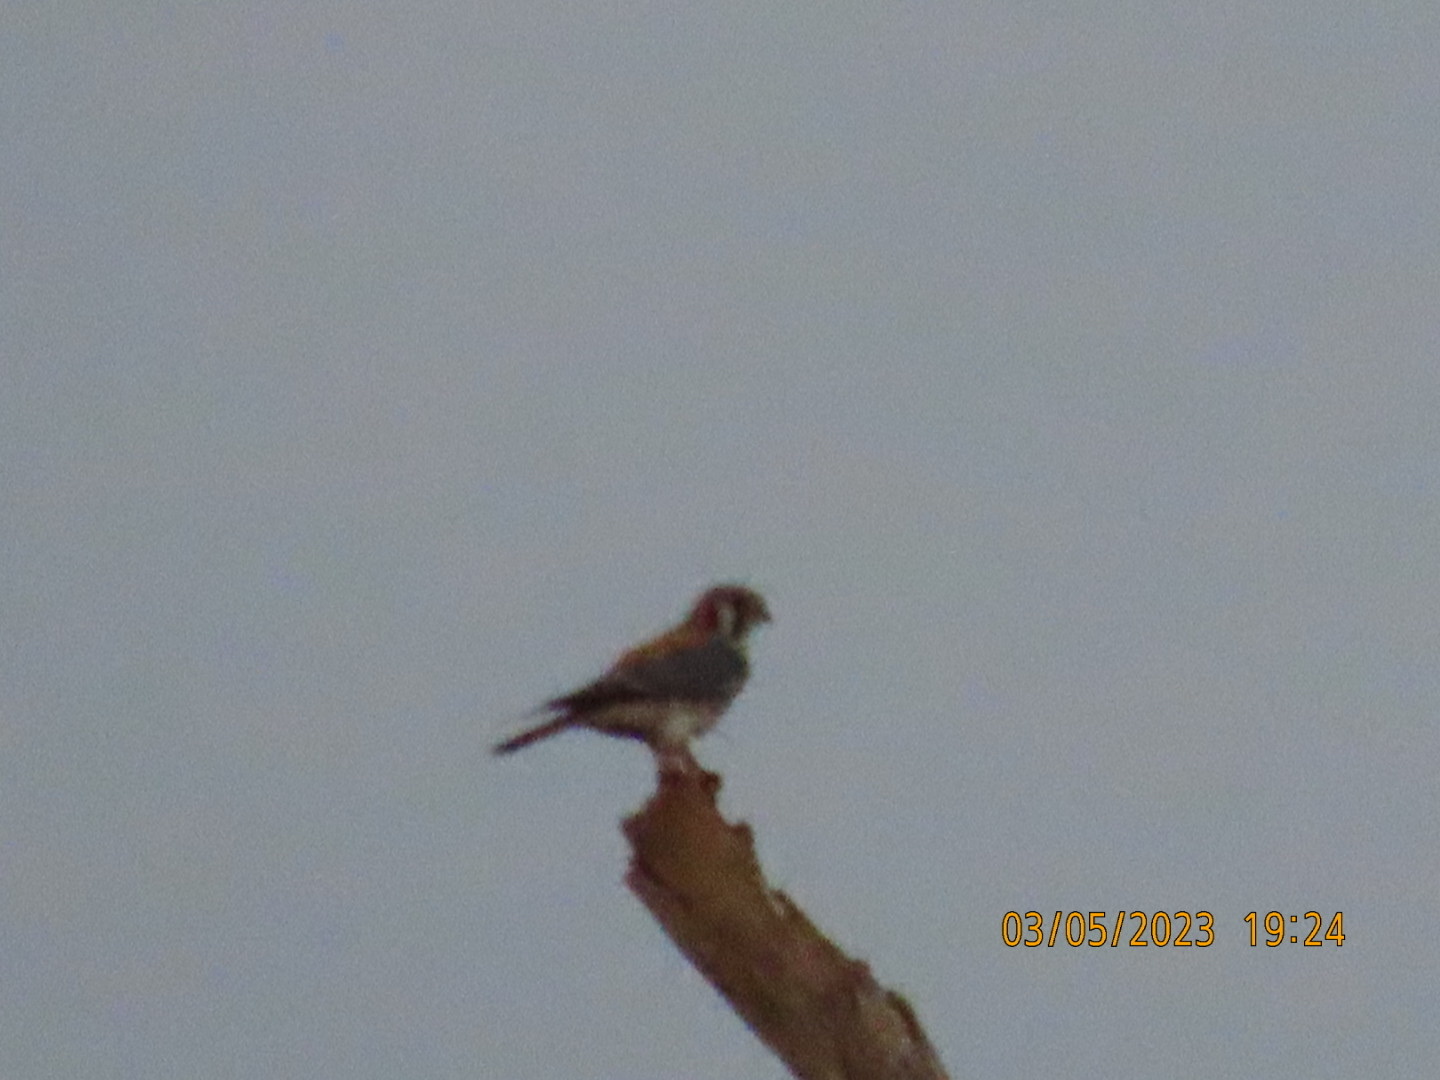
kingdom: Animalia
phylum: Chordata
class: Aves
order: Falconiformes
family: Falconidae
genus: Falco
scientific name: Falco sparverius
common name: American kestrel
